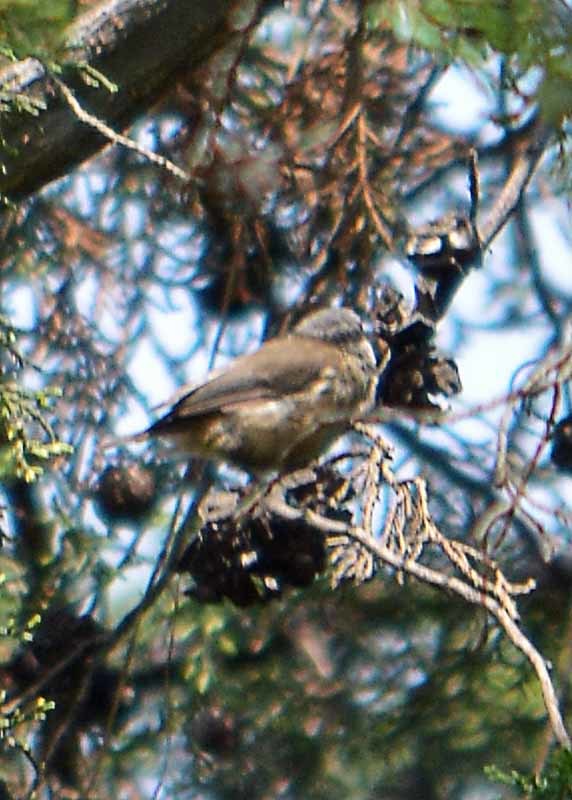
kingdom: Animalia
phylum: Chordata
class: Aves
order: Passeriformes
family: Aegithalidae
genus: Psaltriparus
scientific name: Psaltriparus minimus
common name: American bushtit
